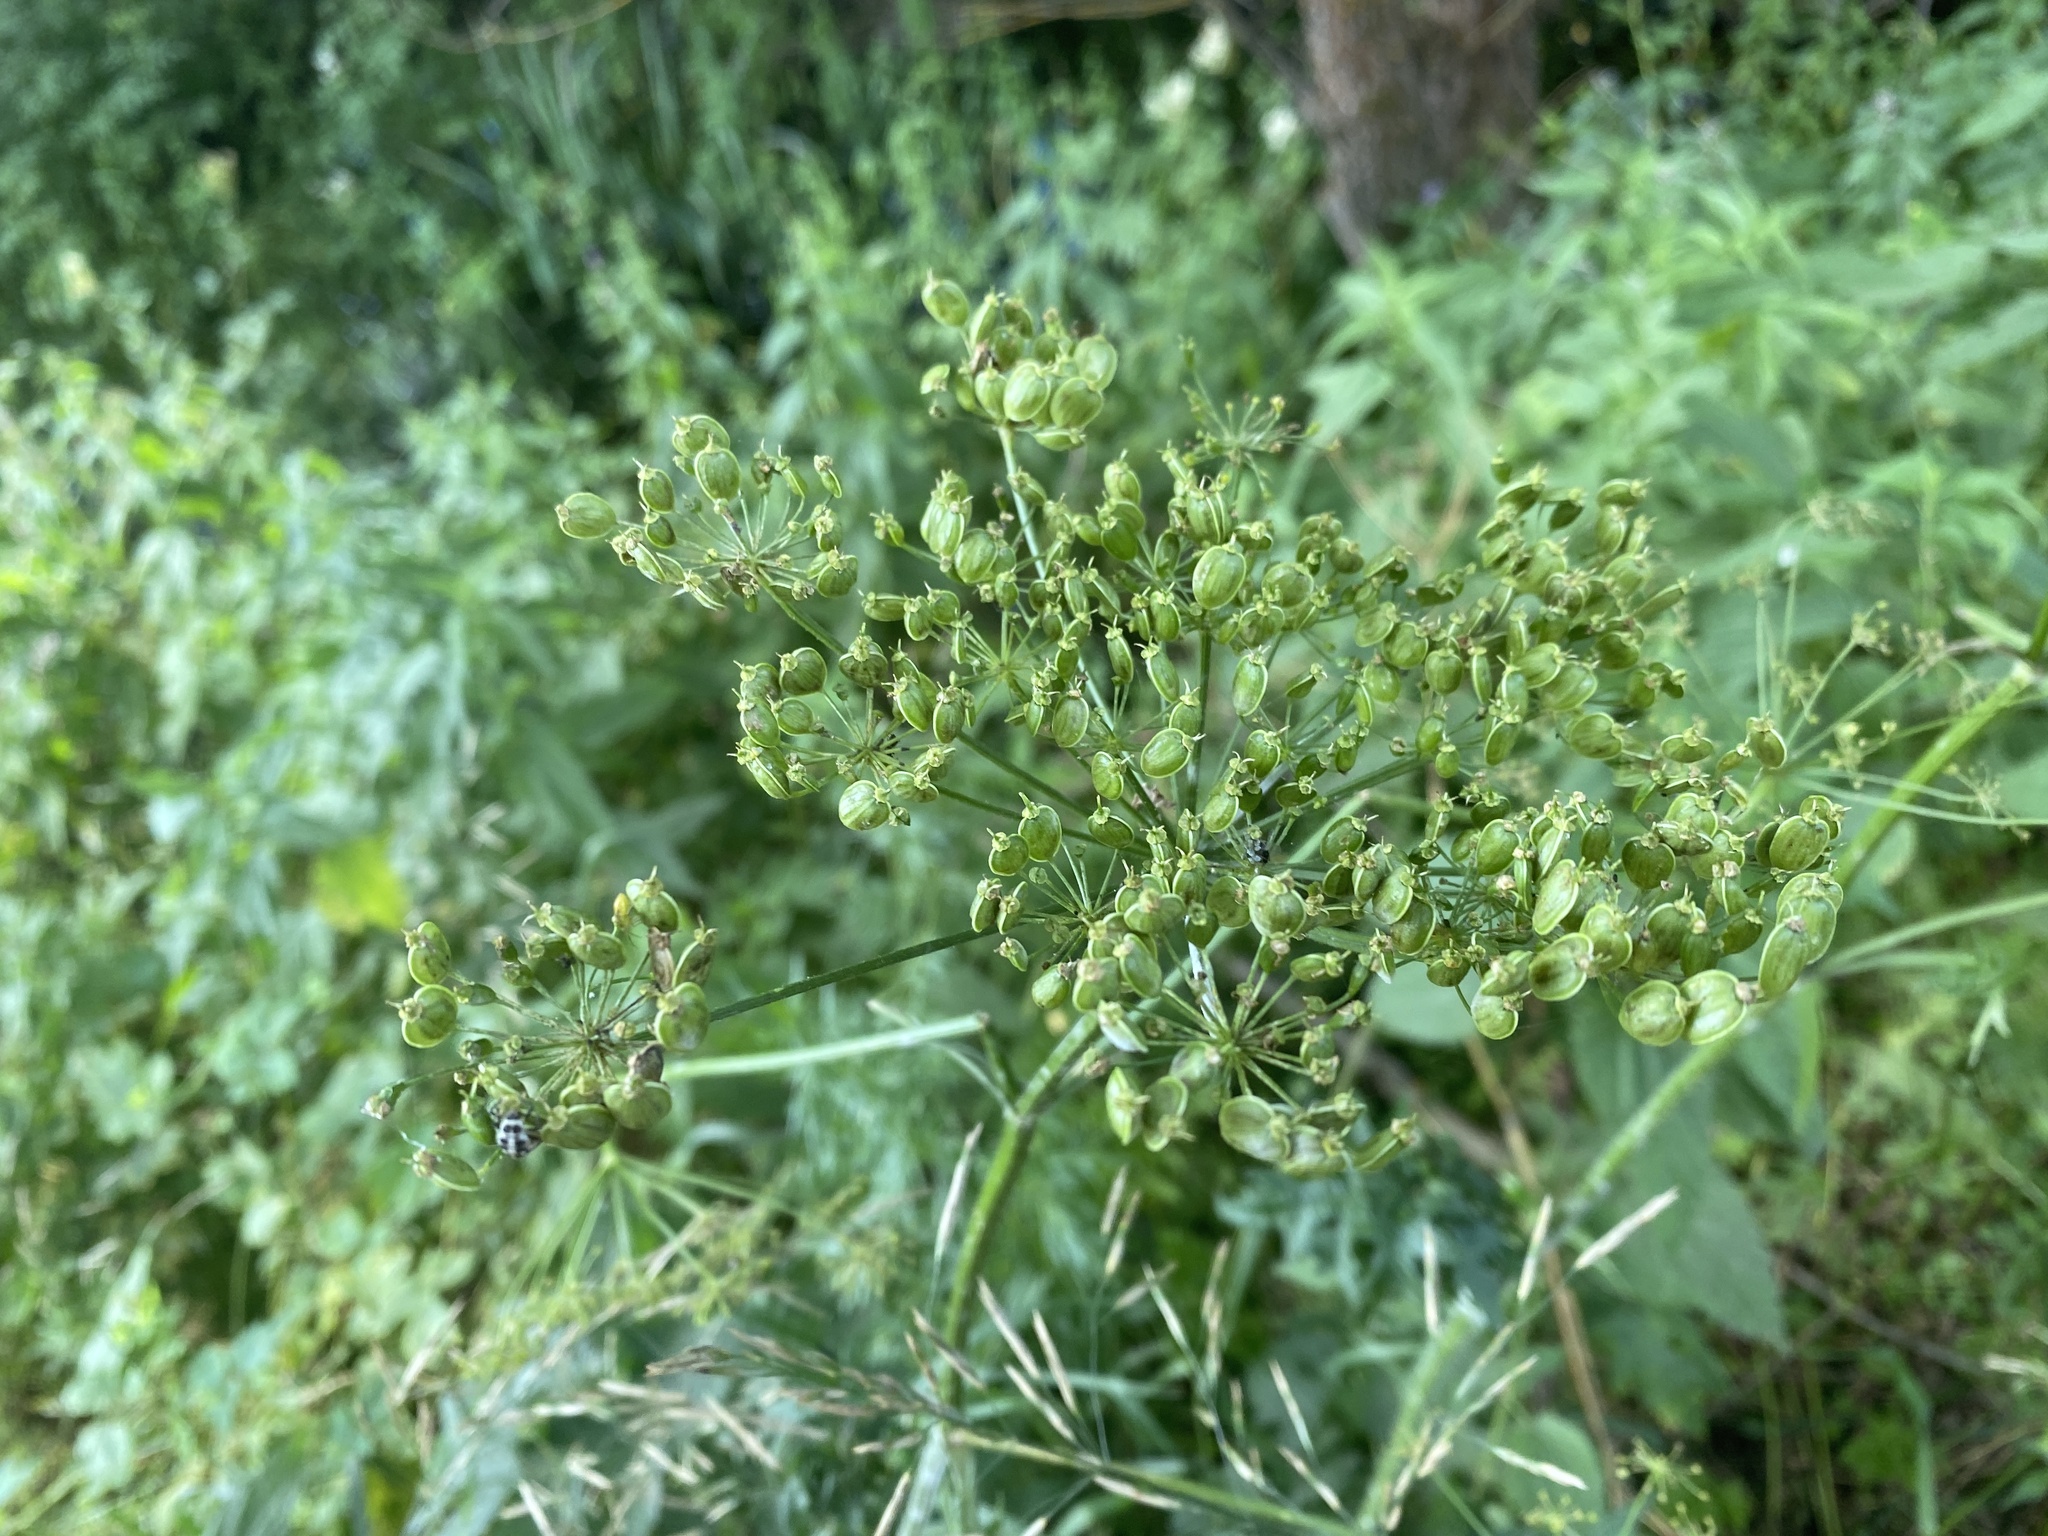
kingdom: Plantae
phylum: Tracheophyta
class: Magnoliopsida
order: Apiales
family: Apiaceae
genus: Heracleum
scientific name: Heracleum sphondylium
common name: Hogweed
